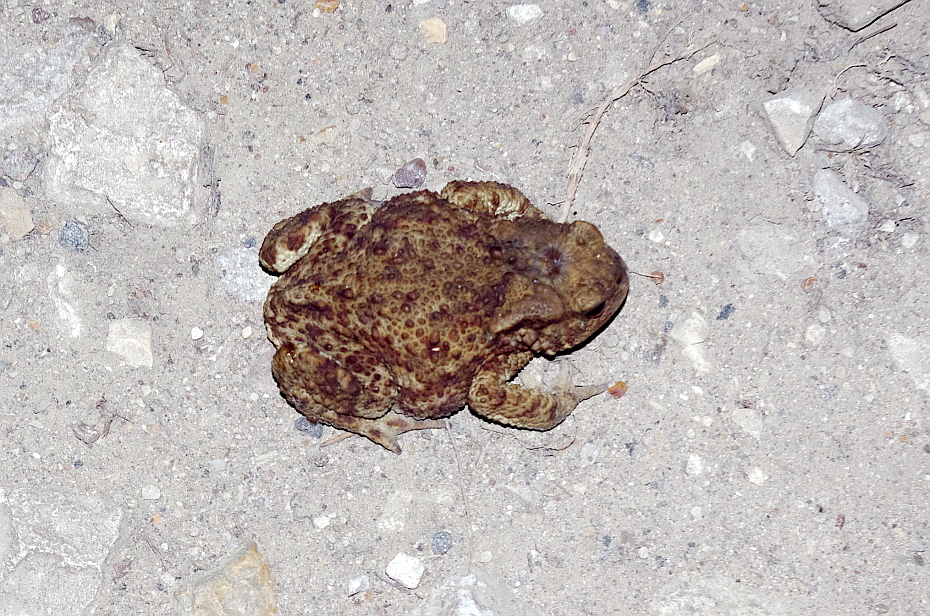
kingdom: Animalia
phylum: Chordata
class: Amphibia
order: Anura
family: Bufonidae
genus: Bufo
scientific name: Bufo bufo
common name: Common toad
